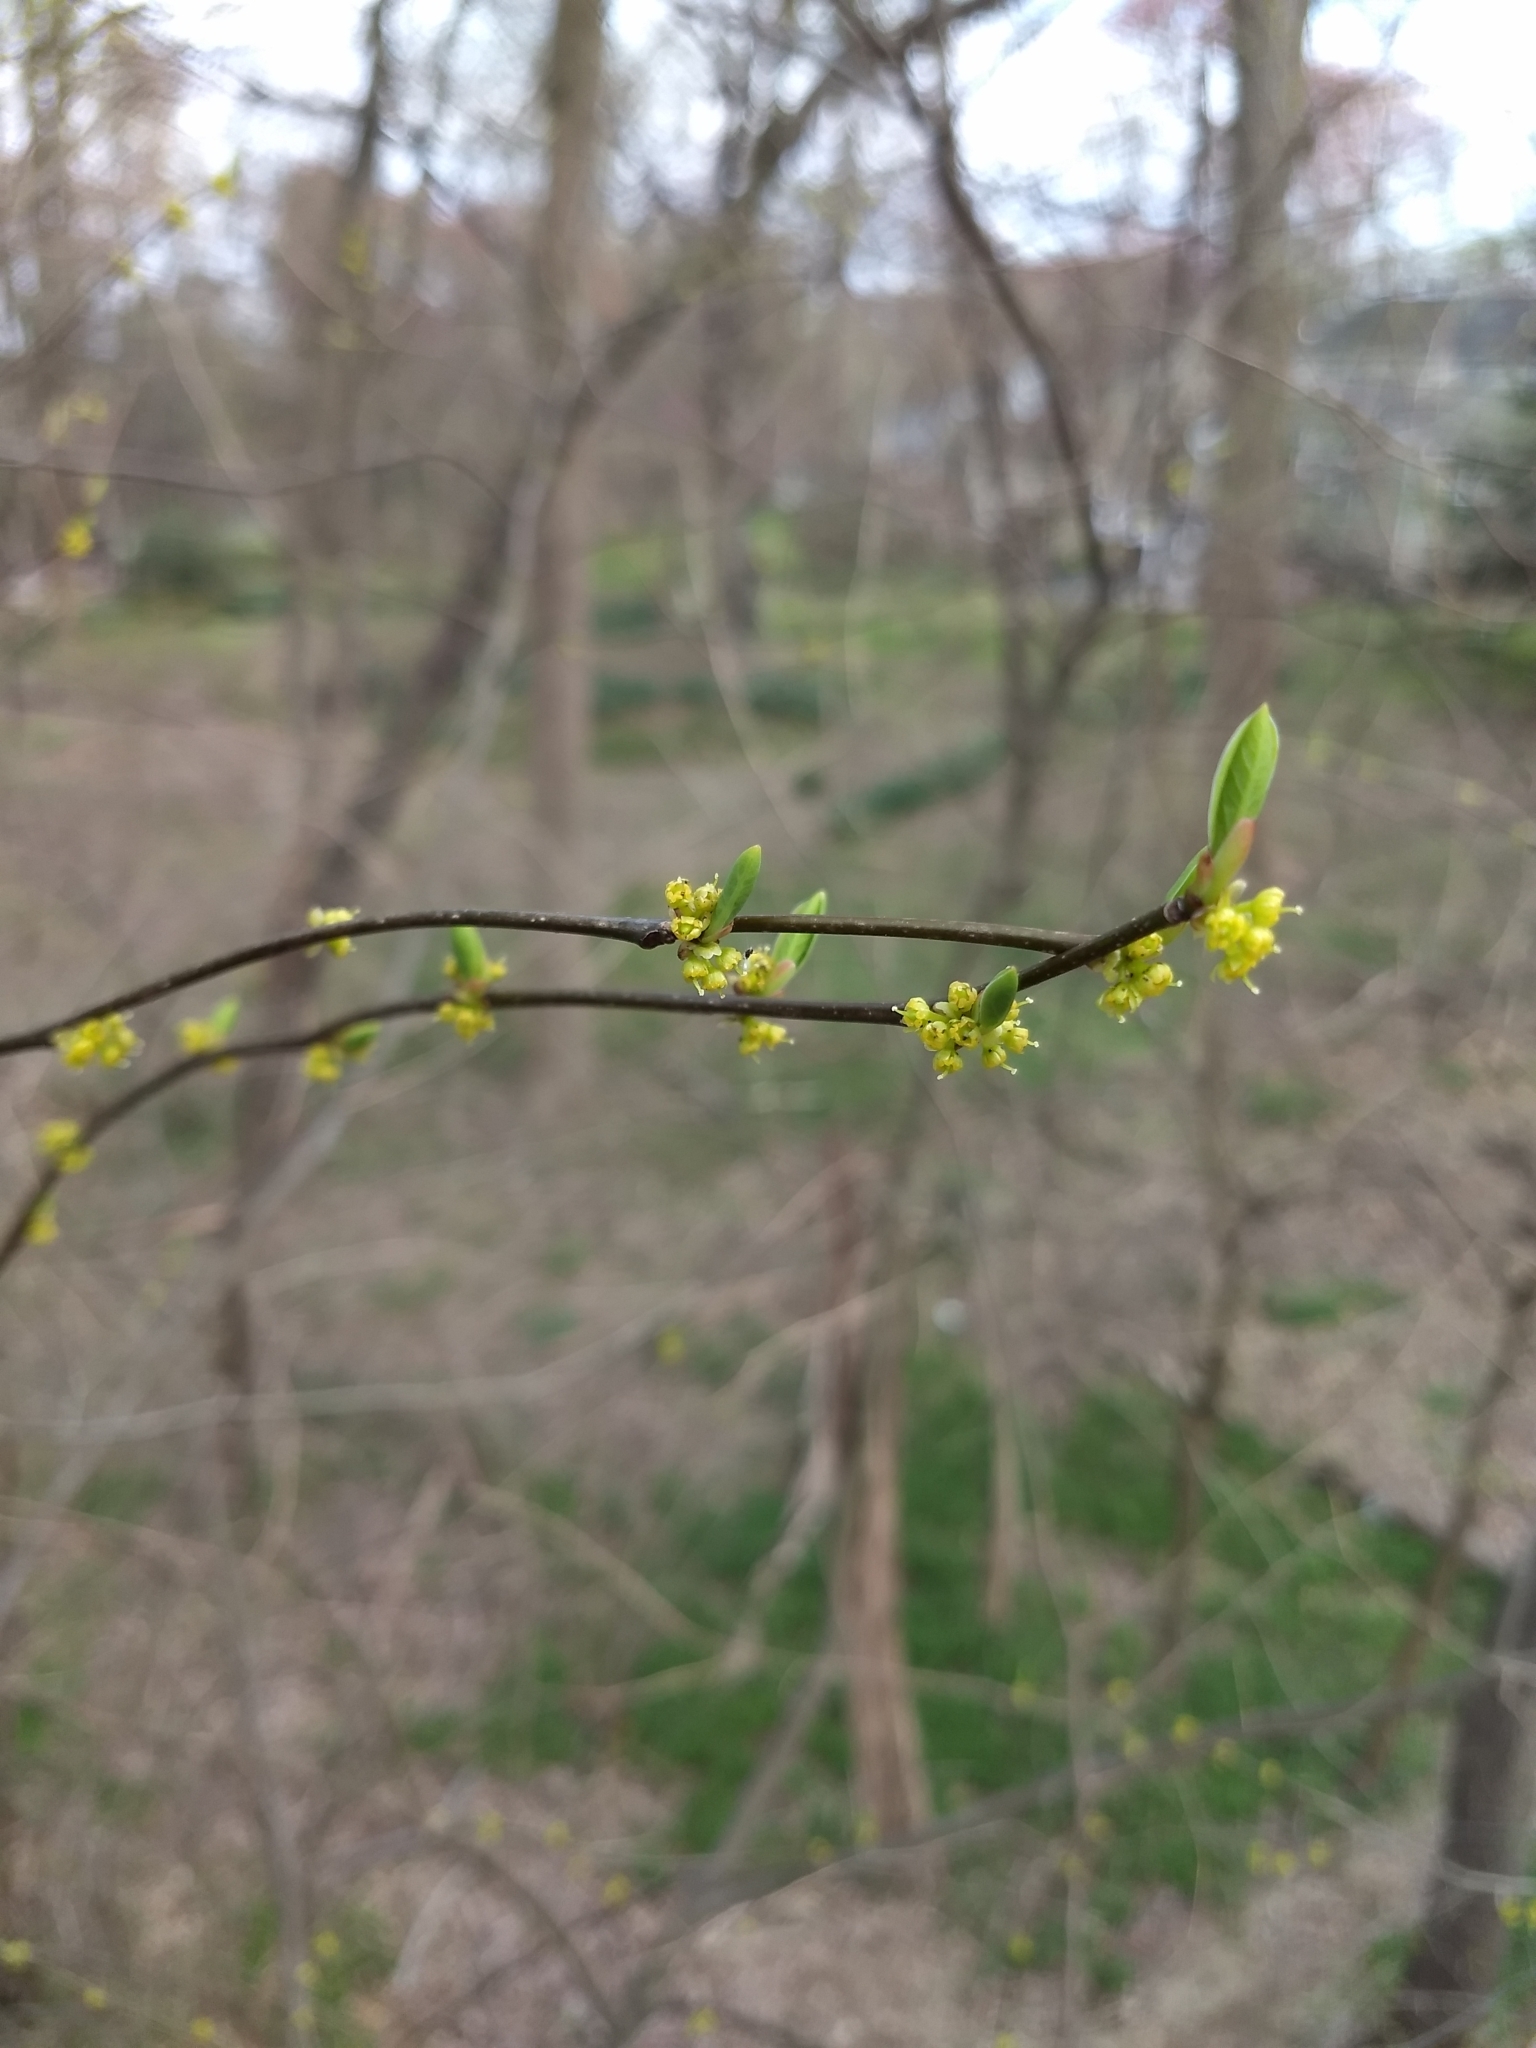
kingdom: Plantae
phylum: Tracheophyta
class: Magnoliopsida
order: Laurales
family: Lauraceae
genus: Lindera
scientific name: Lindera benzoin
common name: Spicebush
